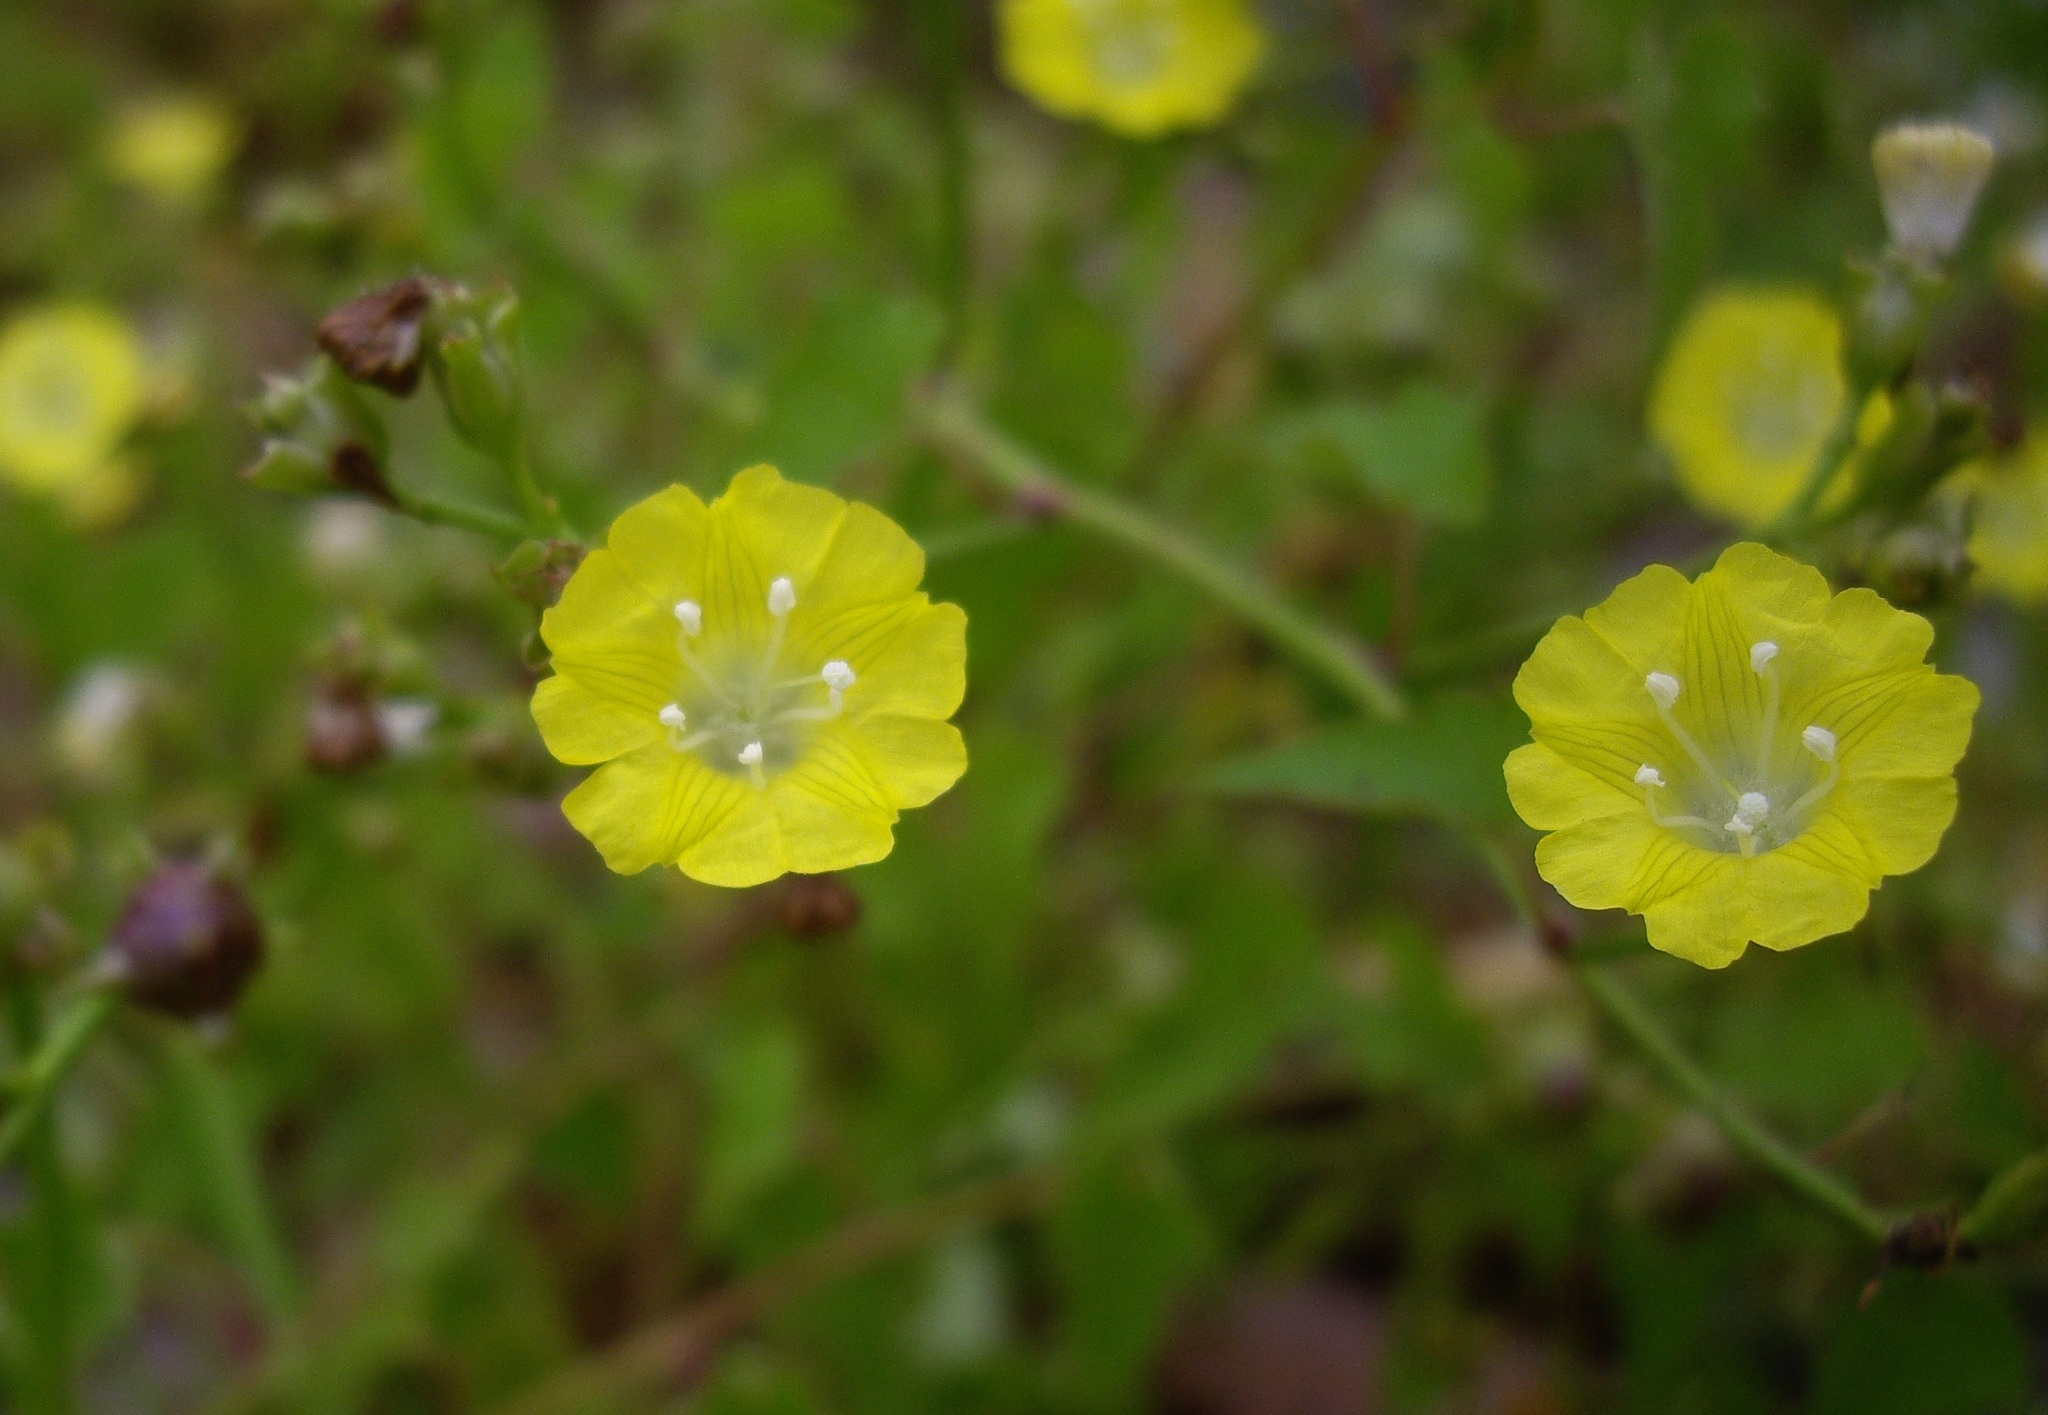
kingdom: Plantae
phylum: Tracheophyta
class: Magnoliopsida
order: Solanales
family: Convolvulaceae
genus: Merremia
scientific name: Merremia hederacea
